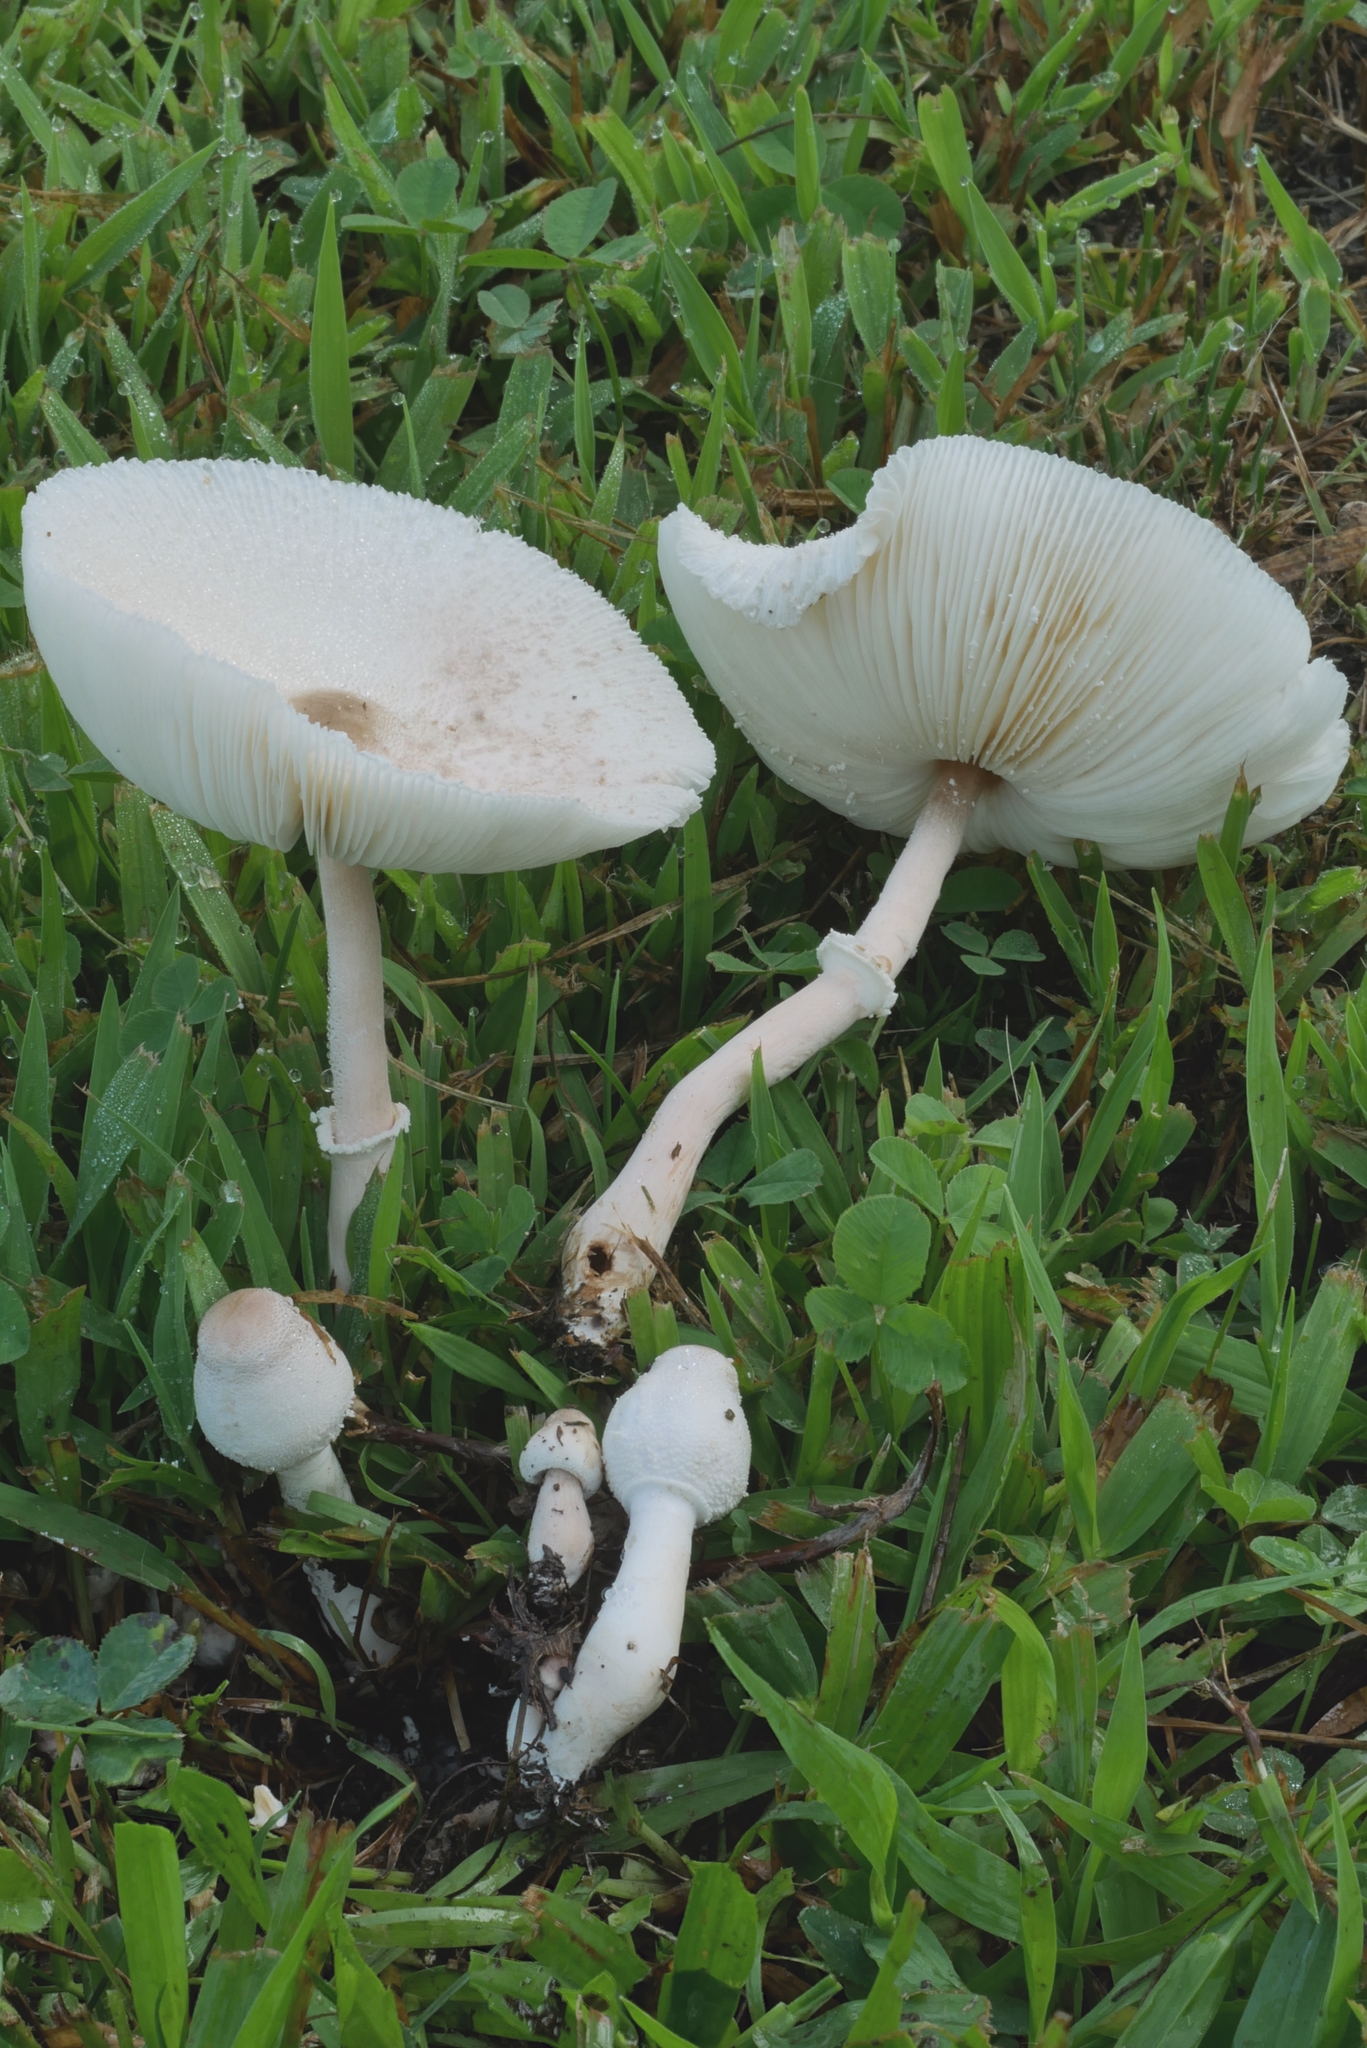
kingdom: Fungi
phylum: Basidiomycota
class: Agaricomycetes
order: Agaricales
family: Agaricaceae
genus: Leucocoprinus
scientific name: Leucocoprinus cepistipes
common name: Onion-stalk parasol
